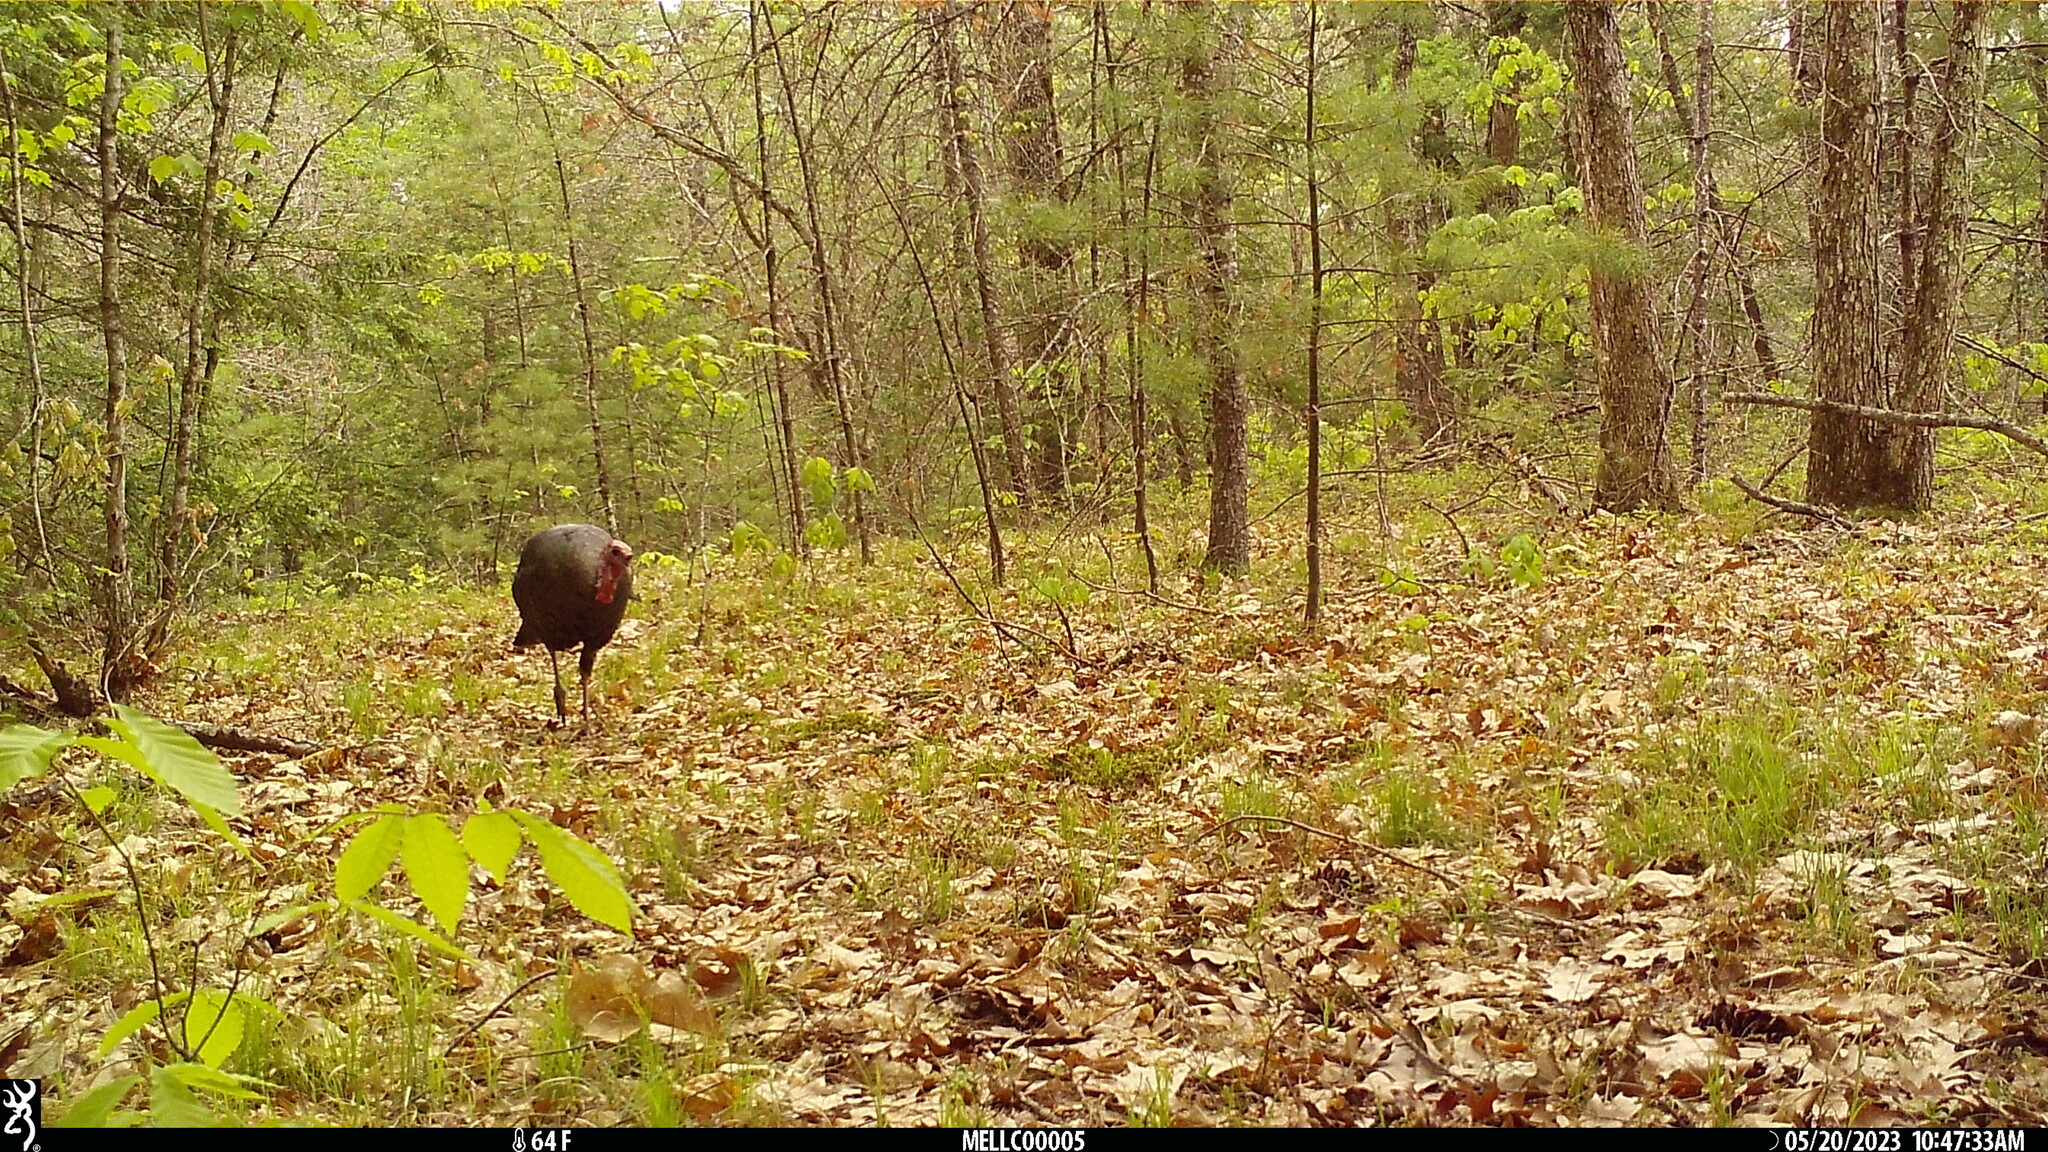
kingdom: Animalia
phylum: Chordata
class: Aves
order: Galliformes
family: Phasianidae
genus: Meleagris
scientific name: Meleagris gallopavo
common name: Wild turkey
